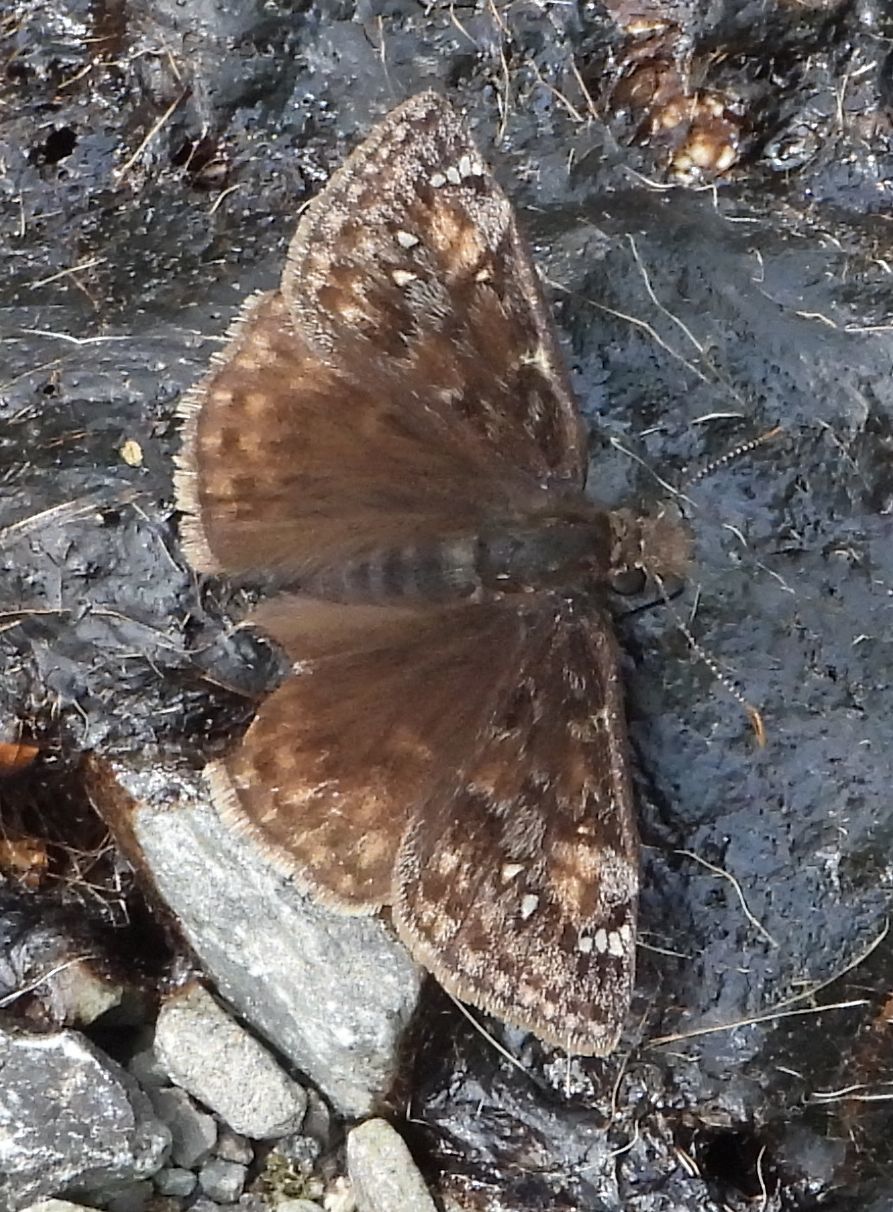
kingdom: Animalia
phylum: Arthropoda
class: Insecta
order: Lepidoptera
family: Hesperiidae
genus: Erynnis
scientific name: Erynnis juvenalis
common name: Juvenal's duskywing
